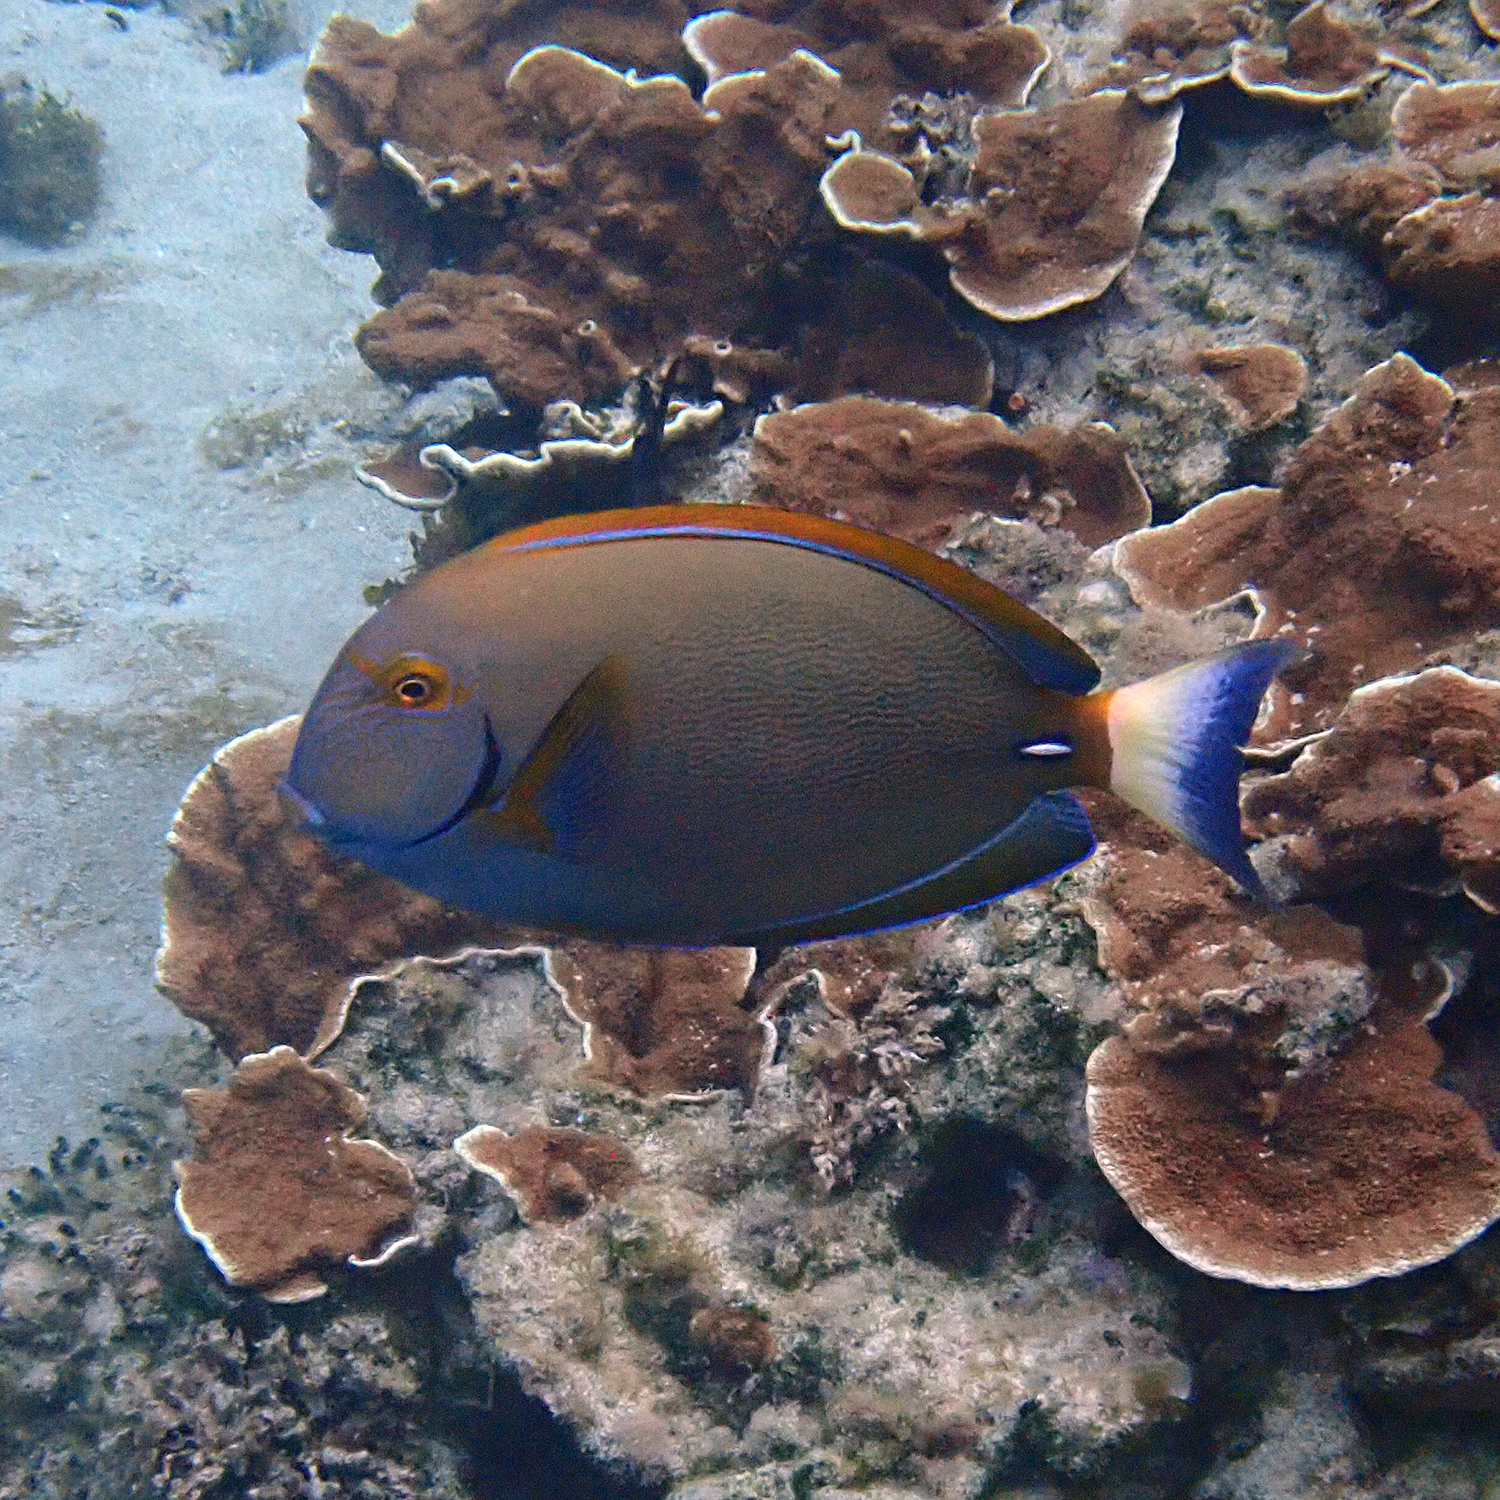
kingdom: Animalia
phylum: Chordata
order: Perciformes
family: Acanthuridae
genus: Acanthurus
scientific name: Acanthurus dussumieri
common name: Dussumier's surgeonfish
